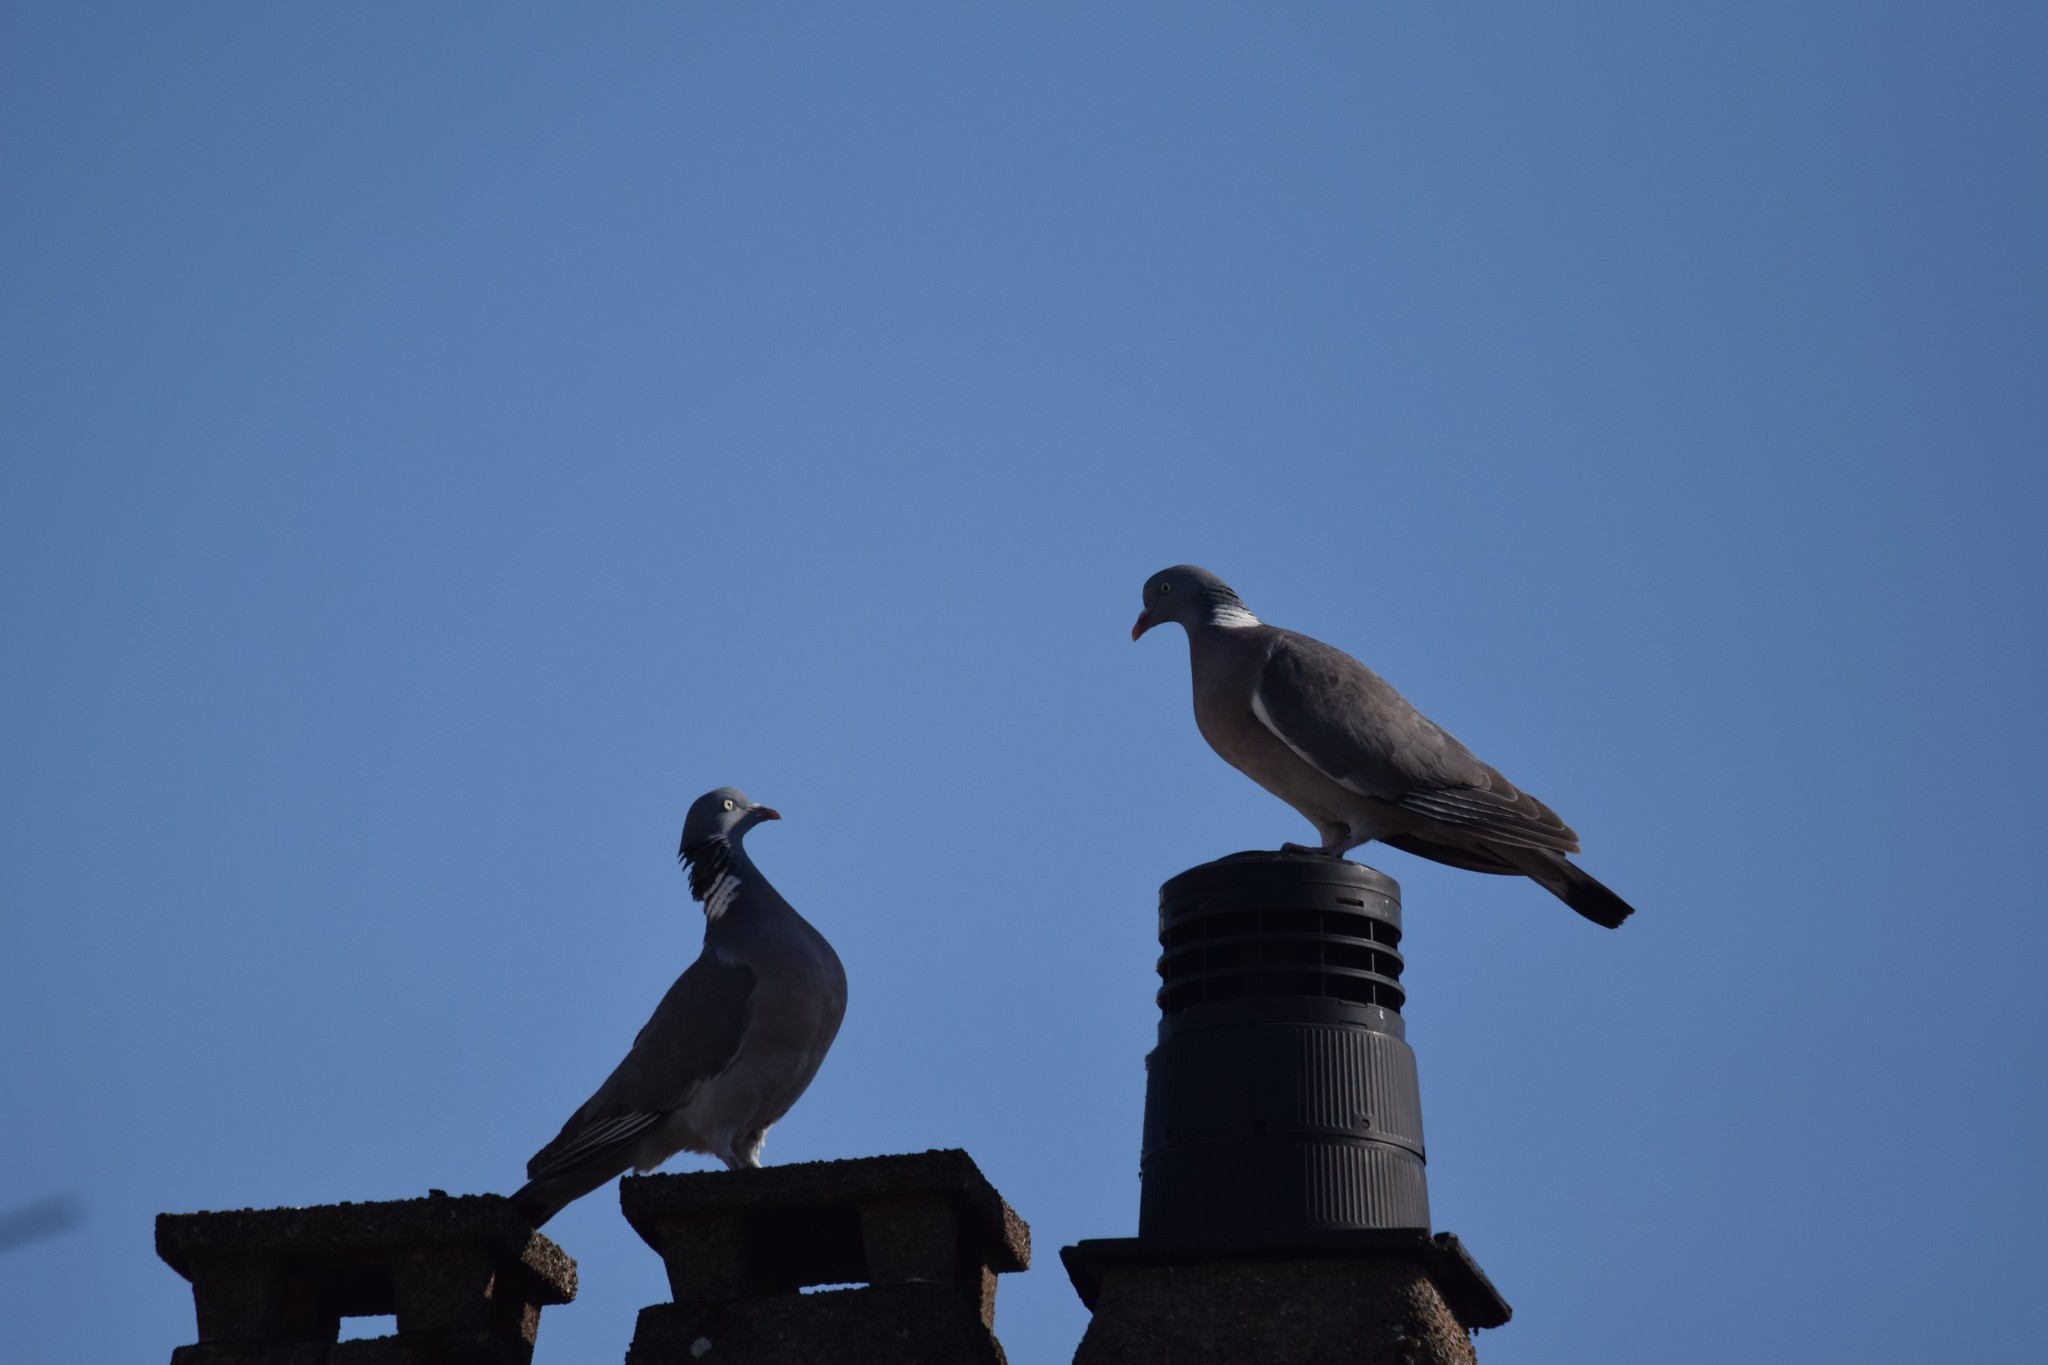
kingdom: Animalia
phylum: Chordata
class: Aves
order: Columbiformes
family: Columbidae
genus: Columba
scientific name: Columba palumbus
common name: Common wood pigeon
